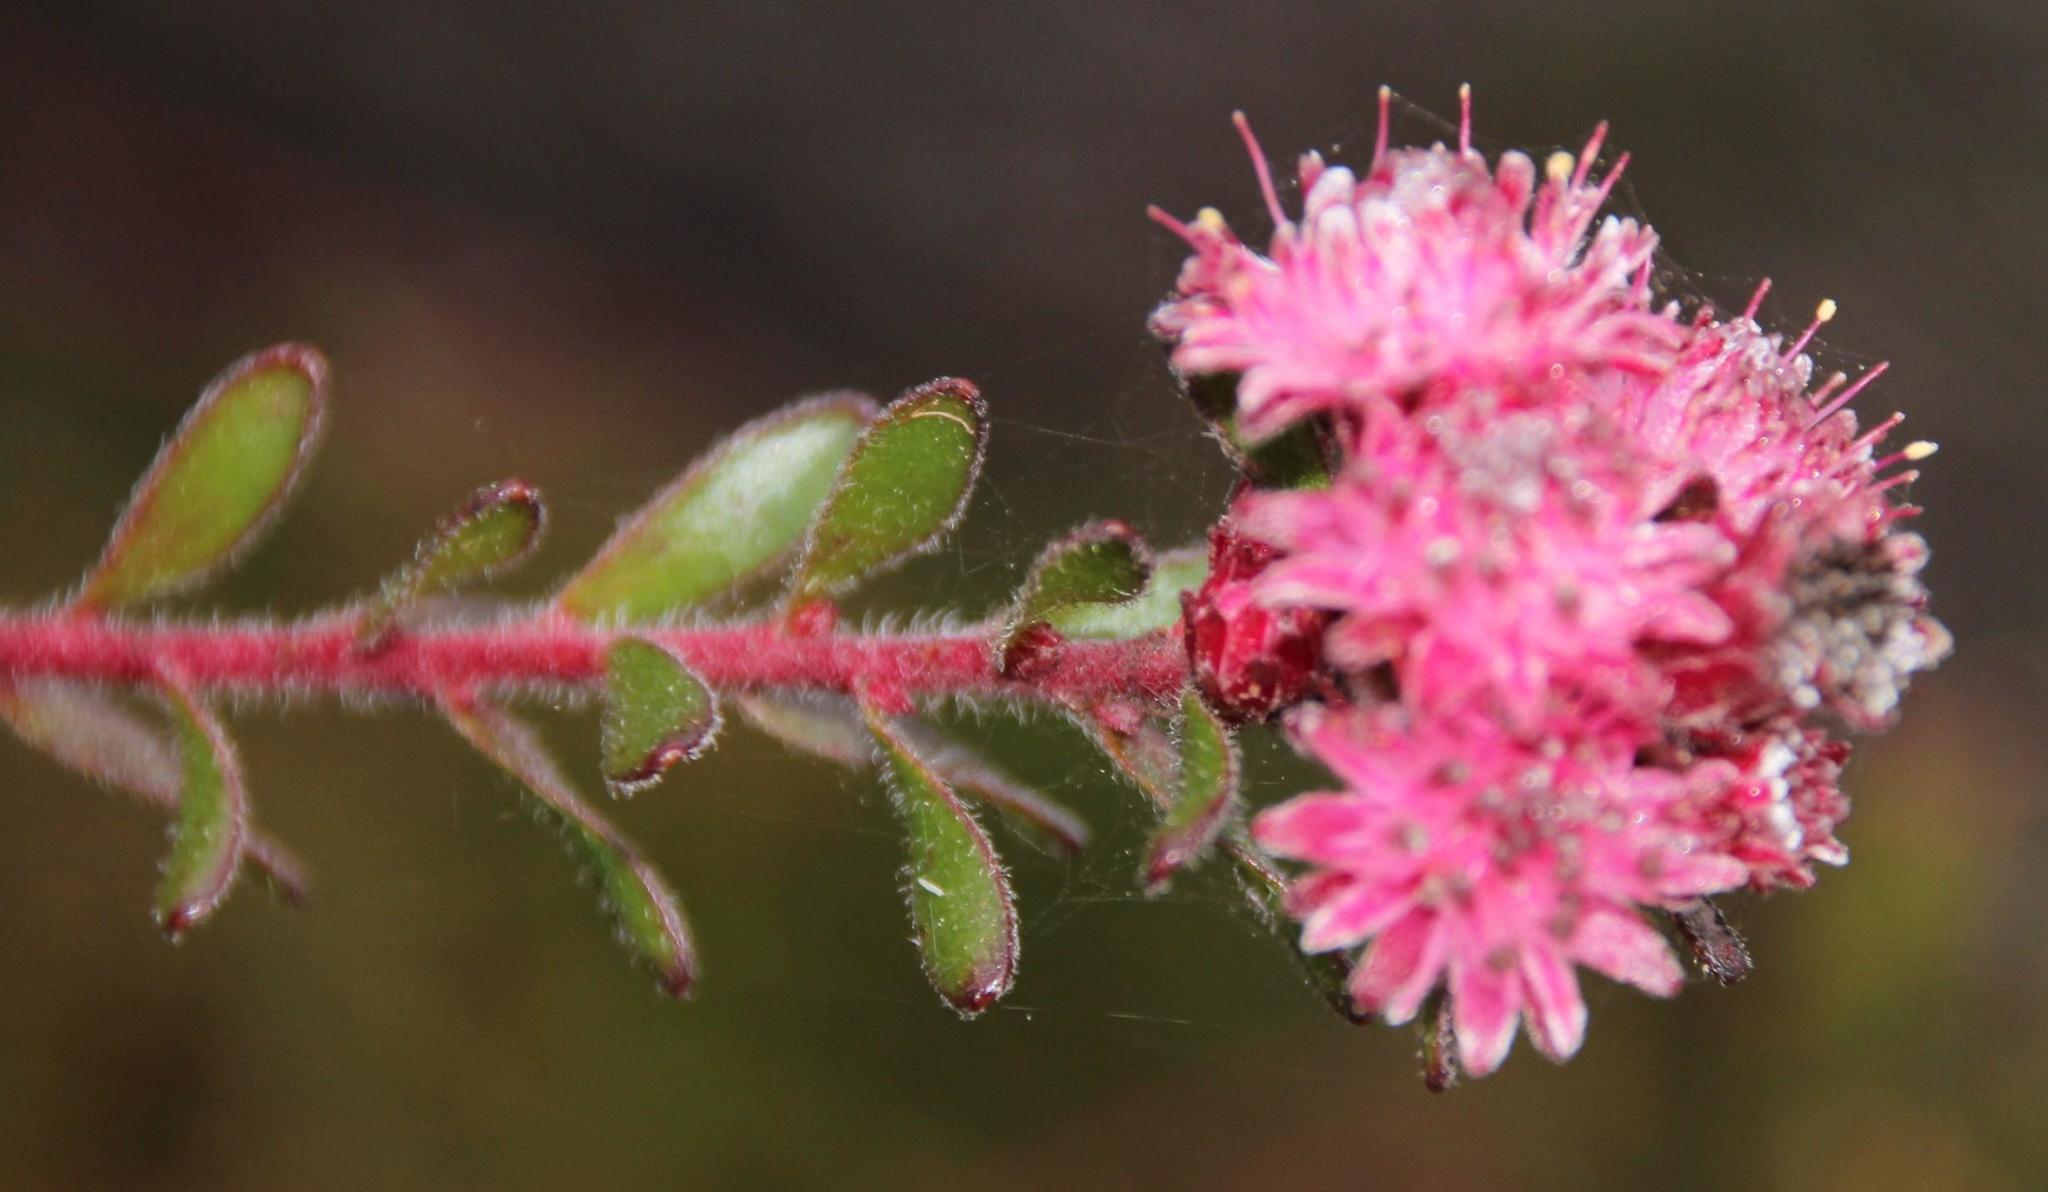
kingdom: Plantae
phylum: Tracheophyta
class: Magnoliopsida
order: Proteales
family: Proteaceae
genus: Diastella
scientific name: Diastella divaricata
